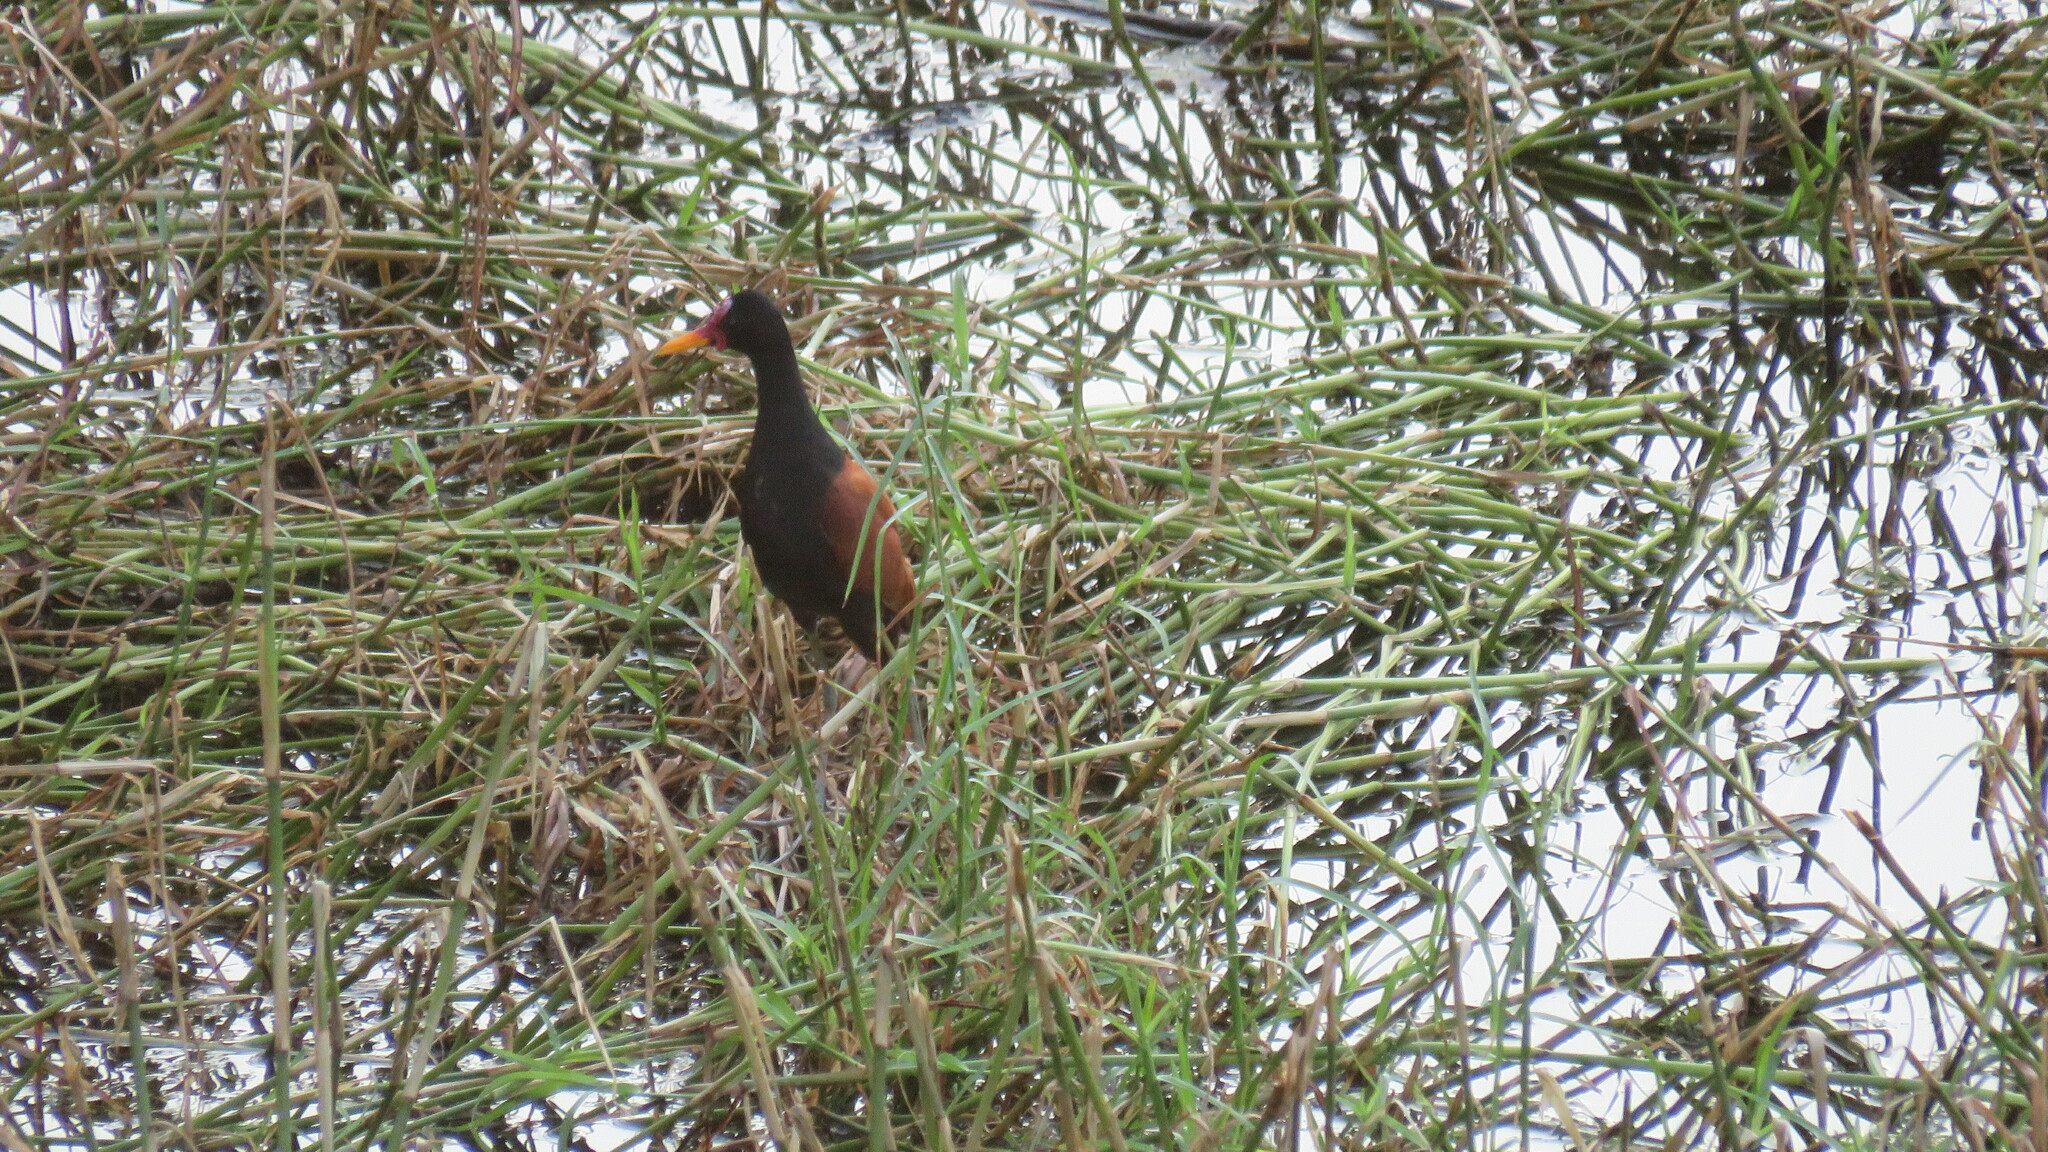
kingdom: Animalia
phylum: Chordata
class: Aves
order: Charadriiformes
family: Jacanidae
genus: Jacana
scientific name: Jacana jacana
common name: Wattled jacana
